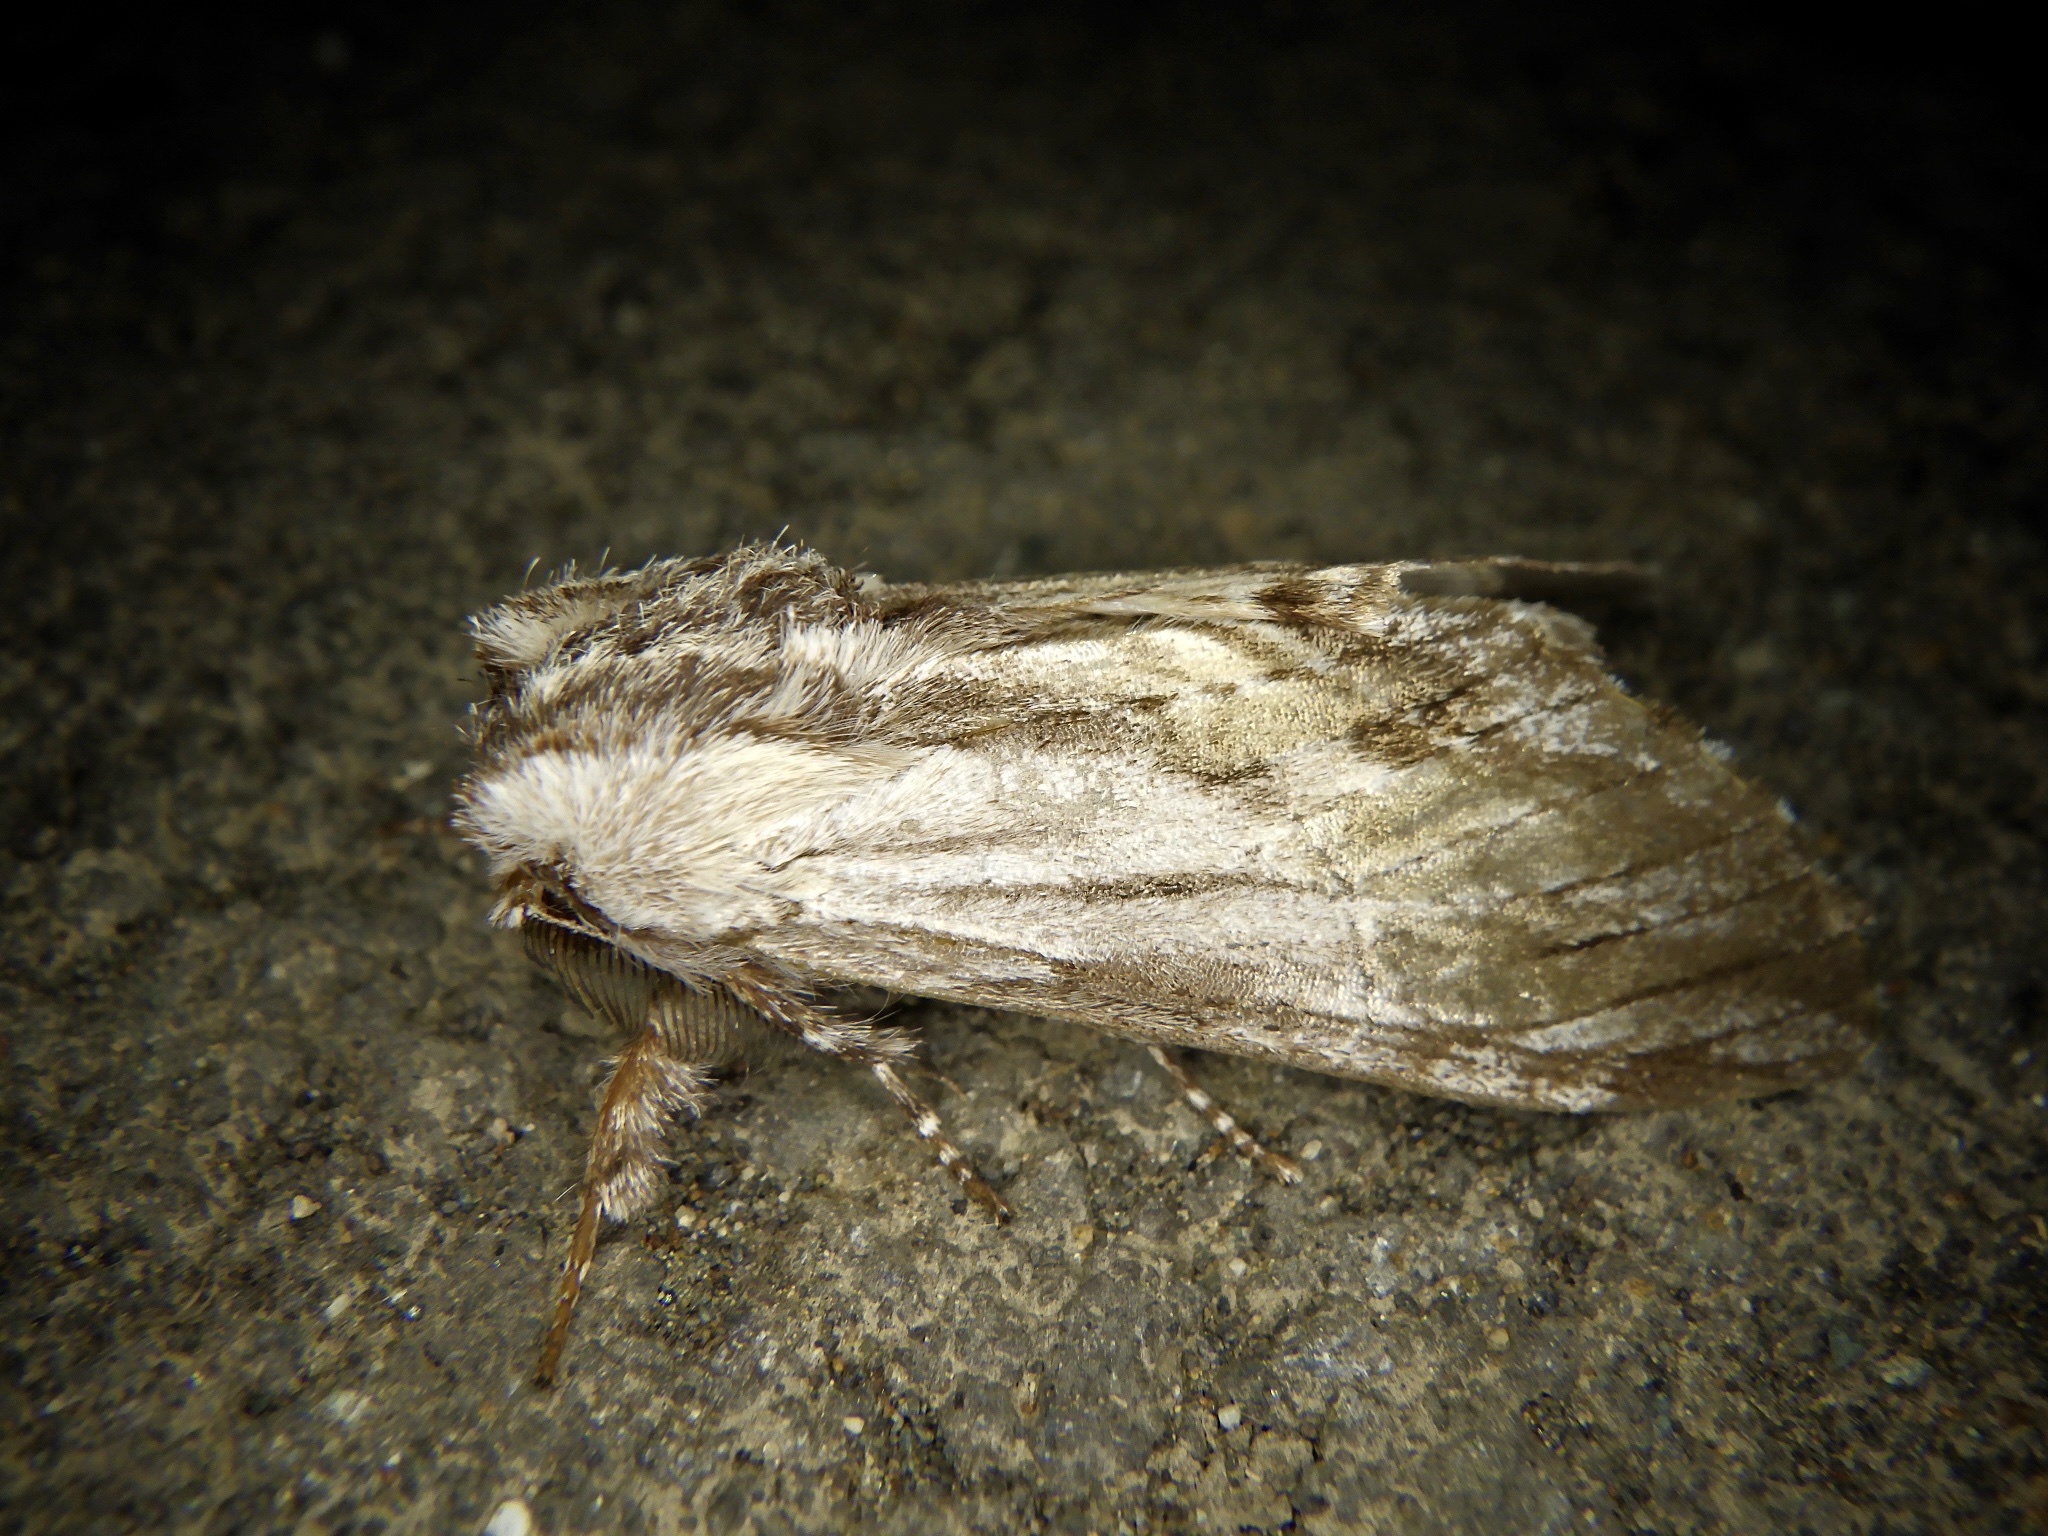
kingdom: Animalia
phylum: Arthropoda
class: Insecta
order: Lepidoptera
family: Notodontidae
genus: Harpyia
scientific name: Harpyia umbrosa
